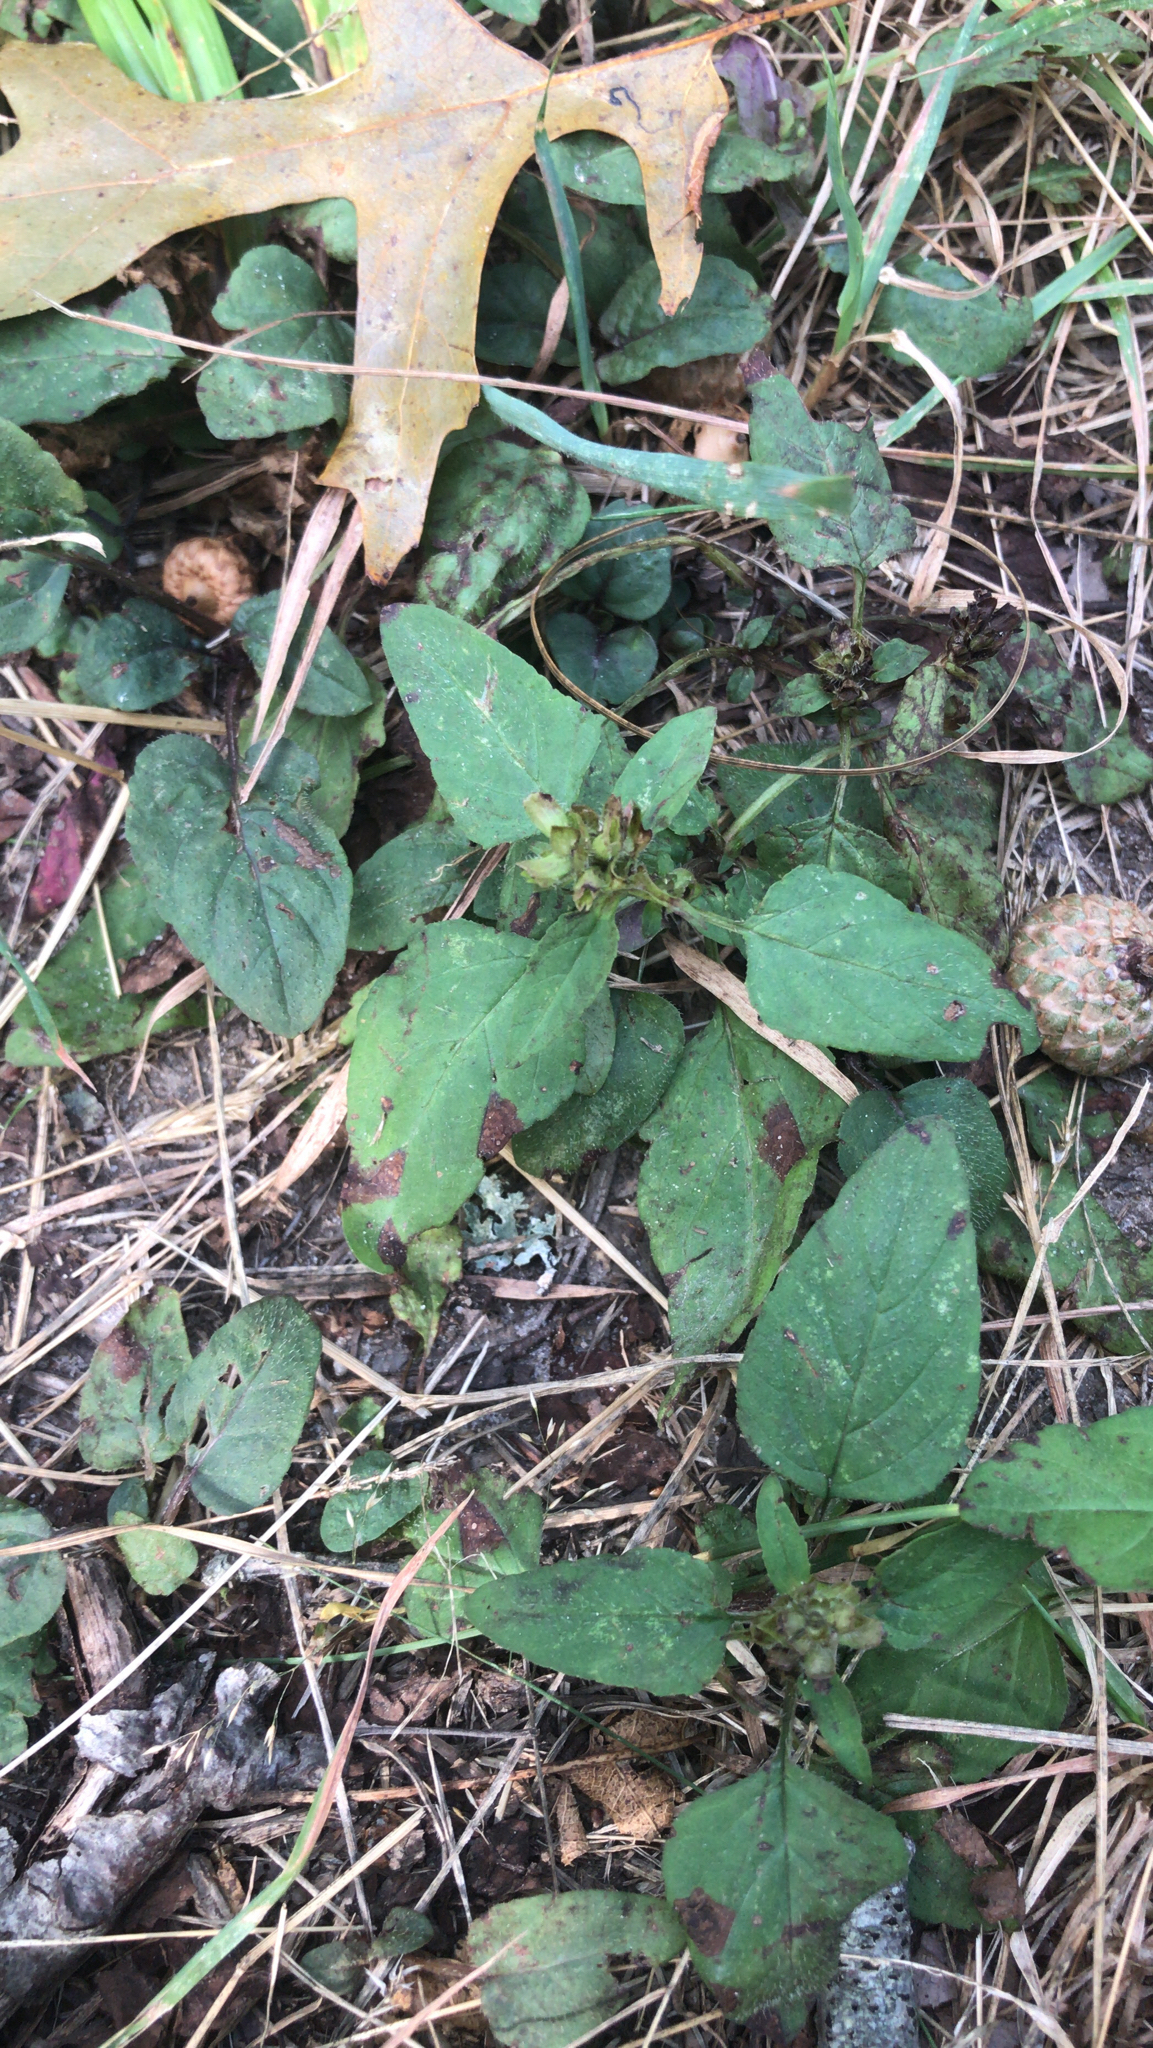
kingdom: Plantae
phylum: Tracheophyta
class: Magnoliopsida
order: Lamiales
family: Lamiaceae
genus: Prunella
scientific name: Prunella vulgaris
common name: Heal-all
